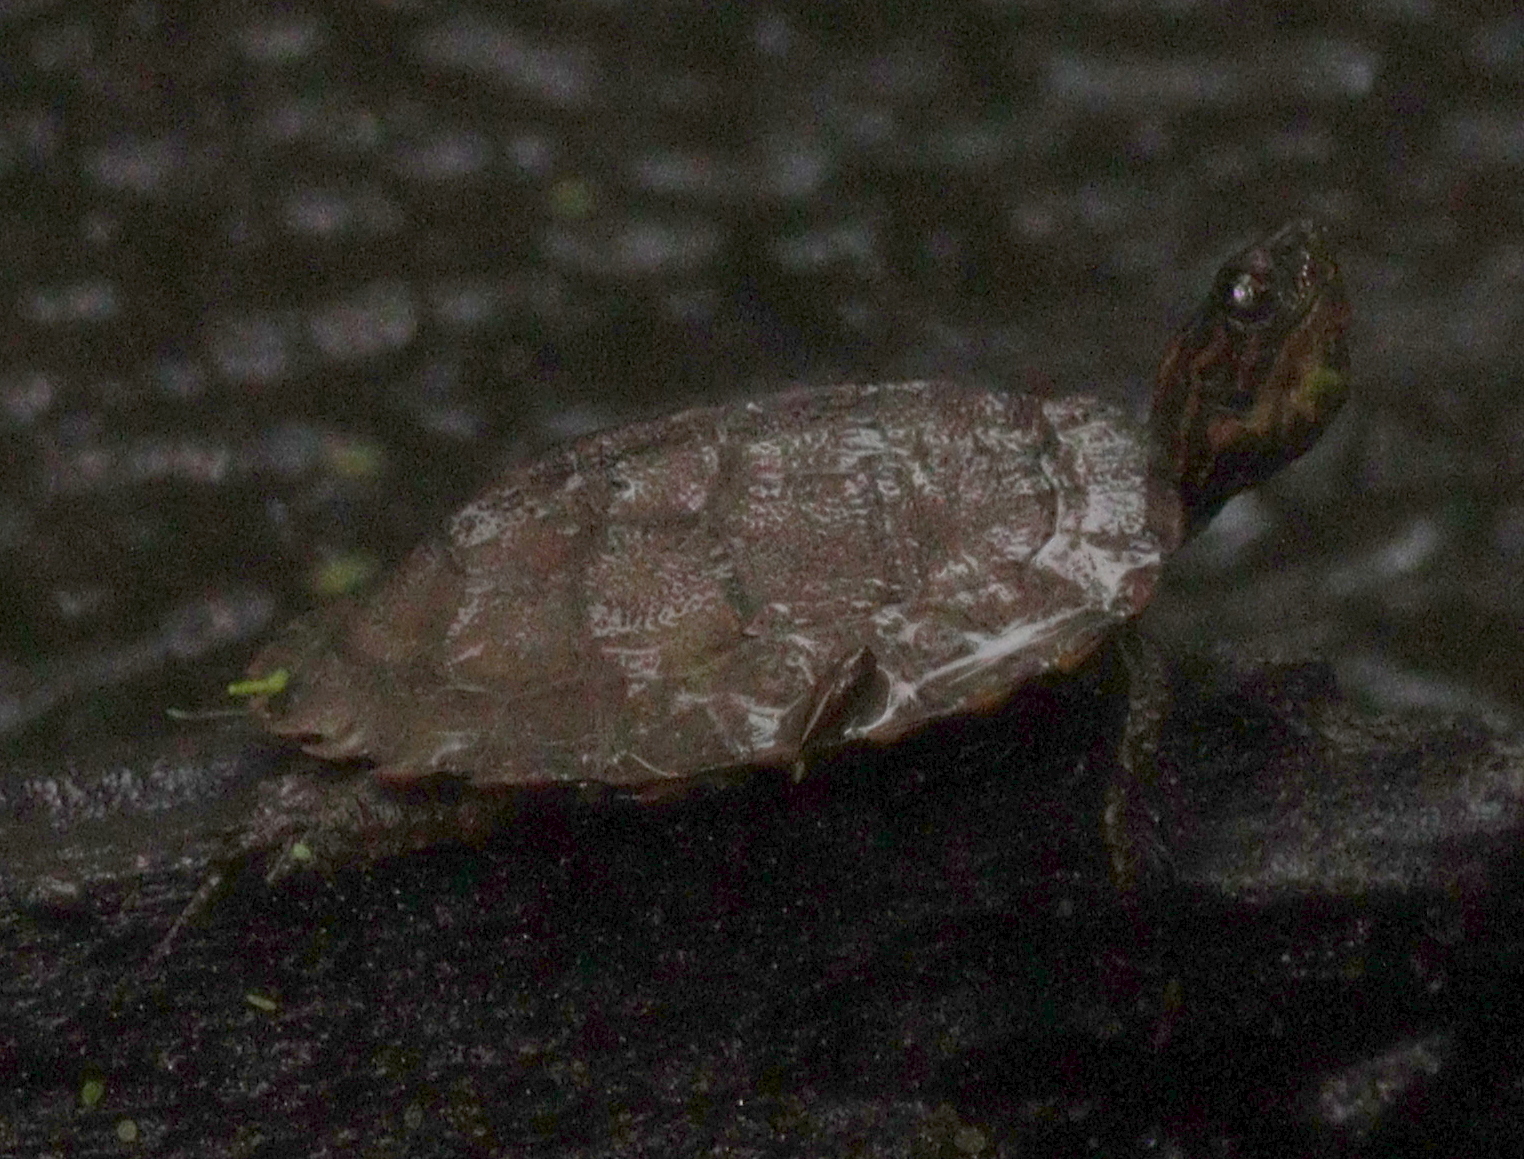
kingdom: Animalia
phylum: Chordata
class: Testudines
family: Geoemydidae
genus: Cyclemys
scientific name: Cyclemys oldhami
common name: (tcheponensis) stripeneck leaf turtle
